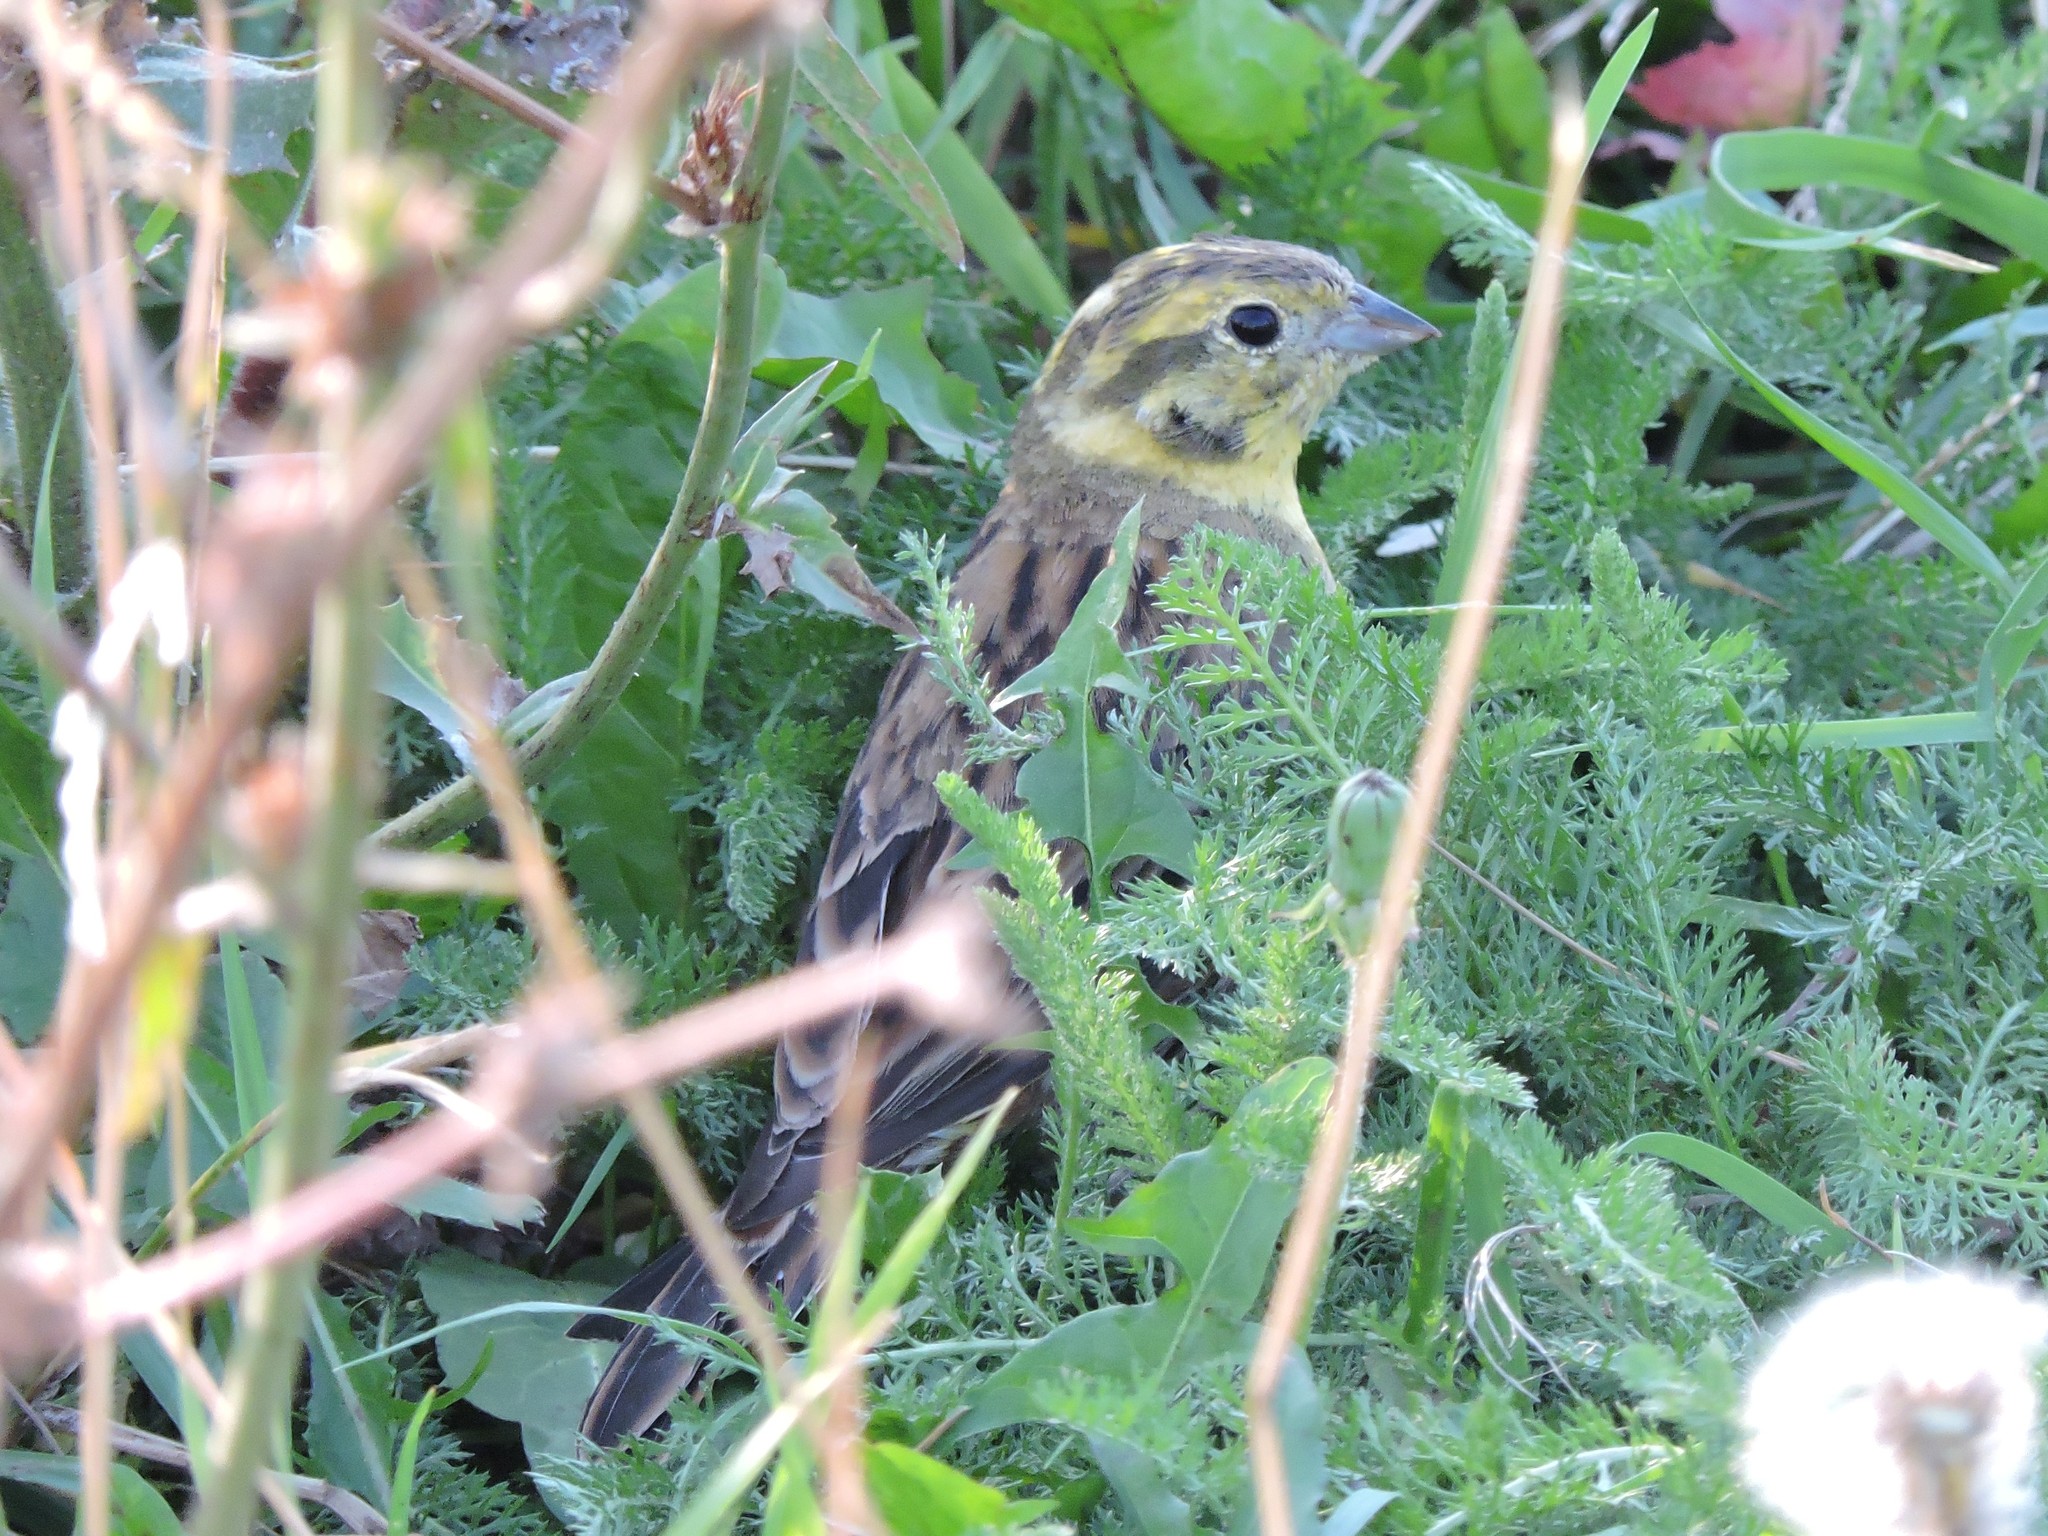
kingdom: Animalia
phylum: Chordata
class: Aves
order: Passeriformes
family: Emberizidae
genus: Emberiza
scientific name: Emberiza citrinella
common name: Yellowhammer
